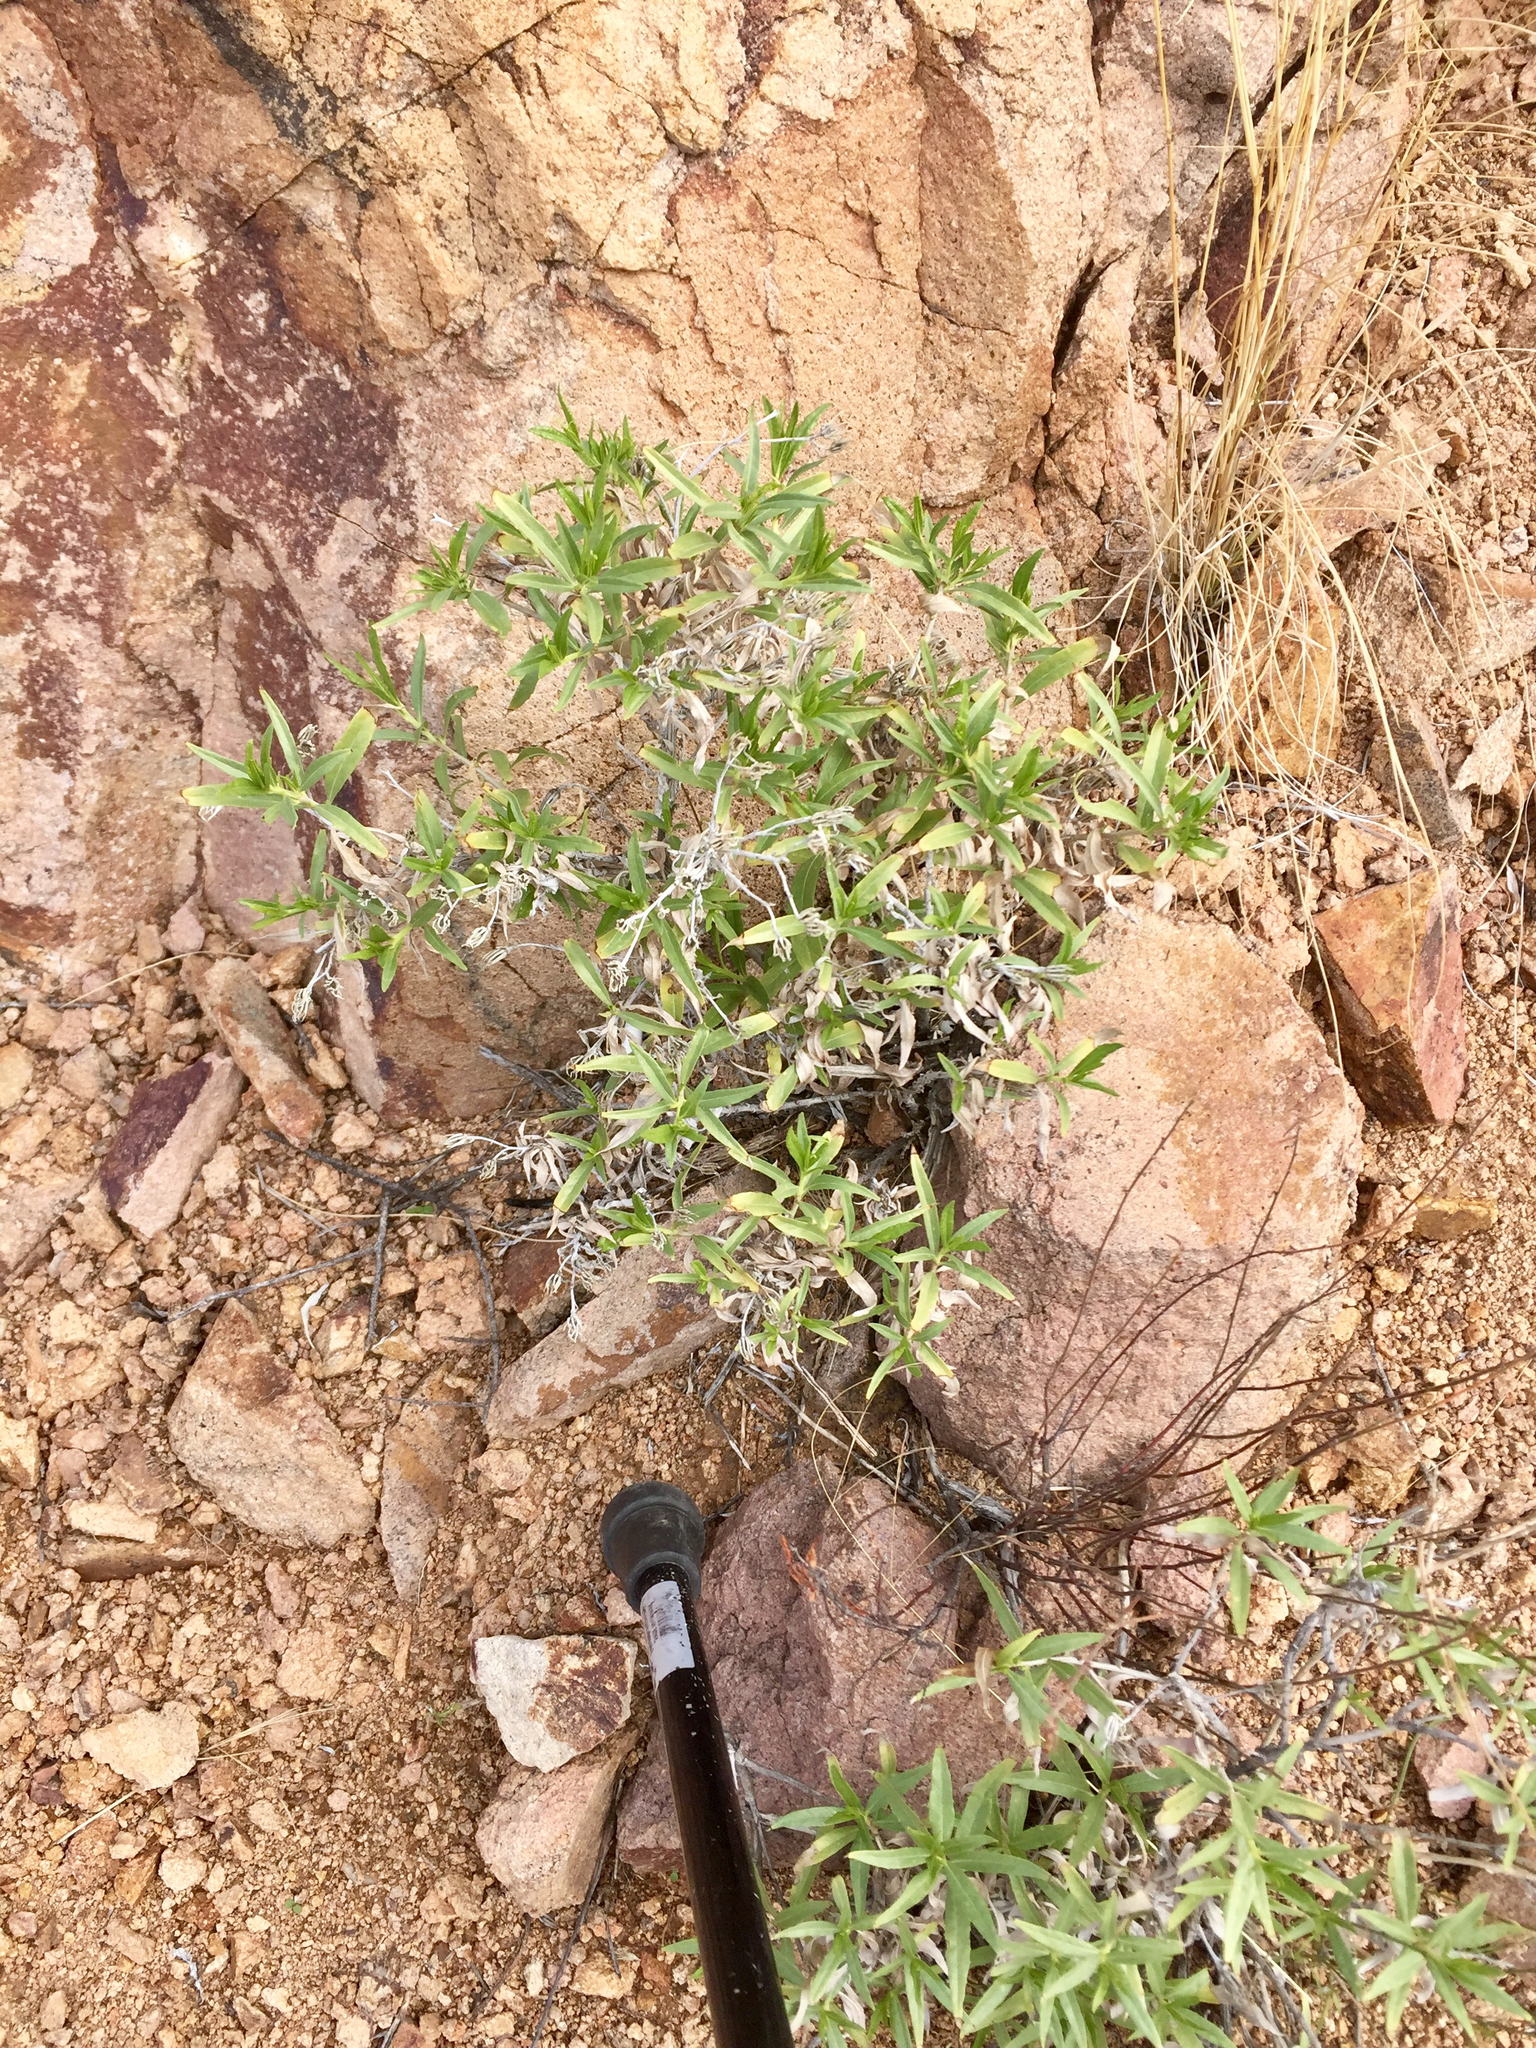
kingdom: Plantae
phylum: Tracheophyta
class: Magnoliopsida
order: Asterales
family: Asteraceae
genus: Trixis
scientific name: Trixis californica
